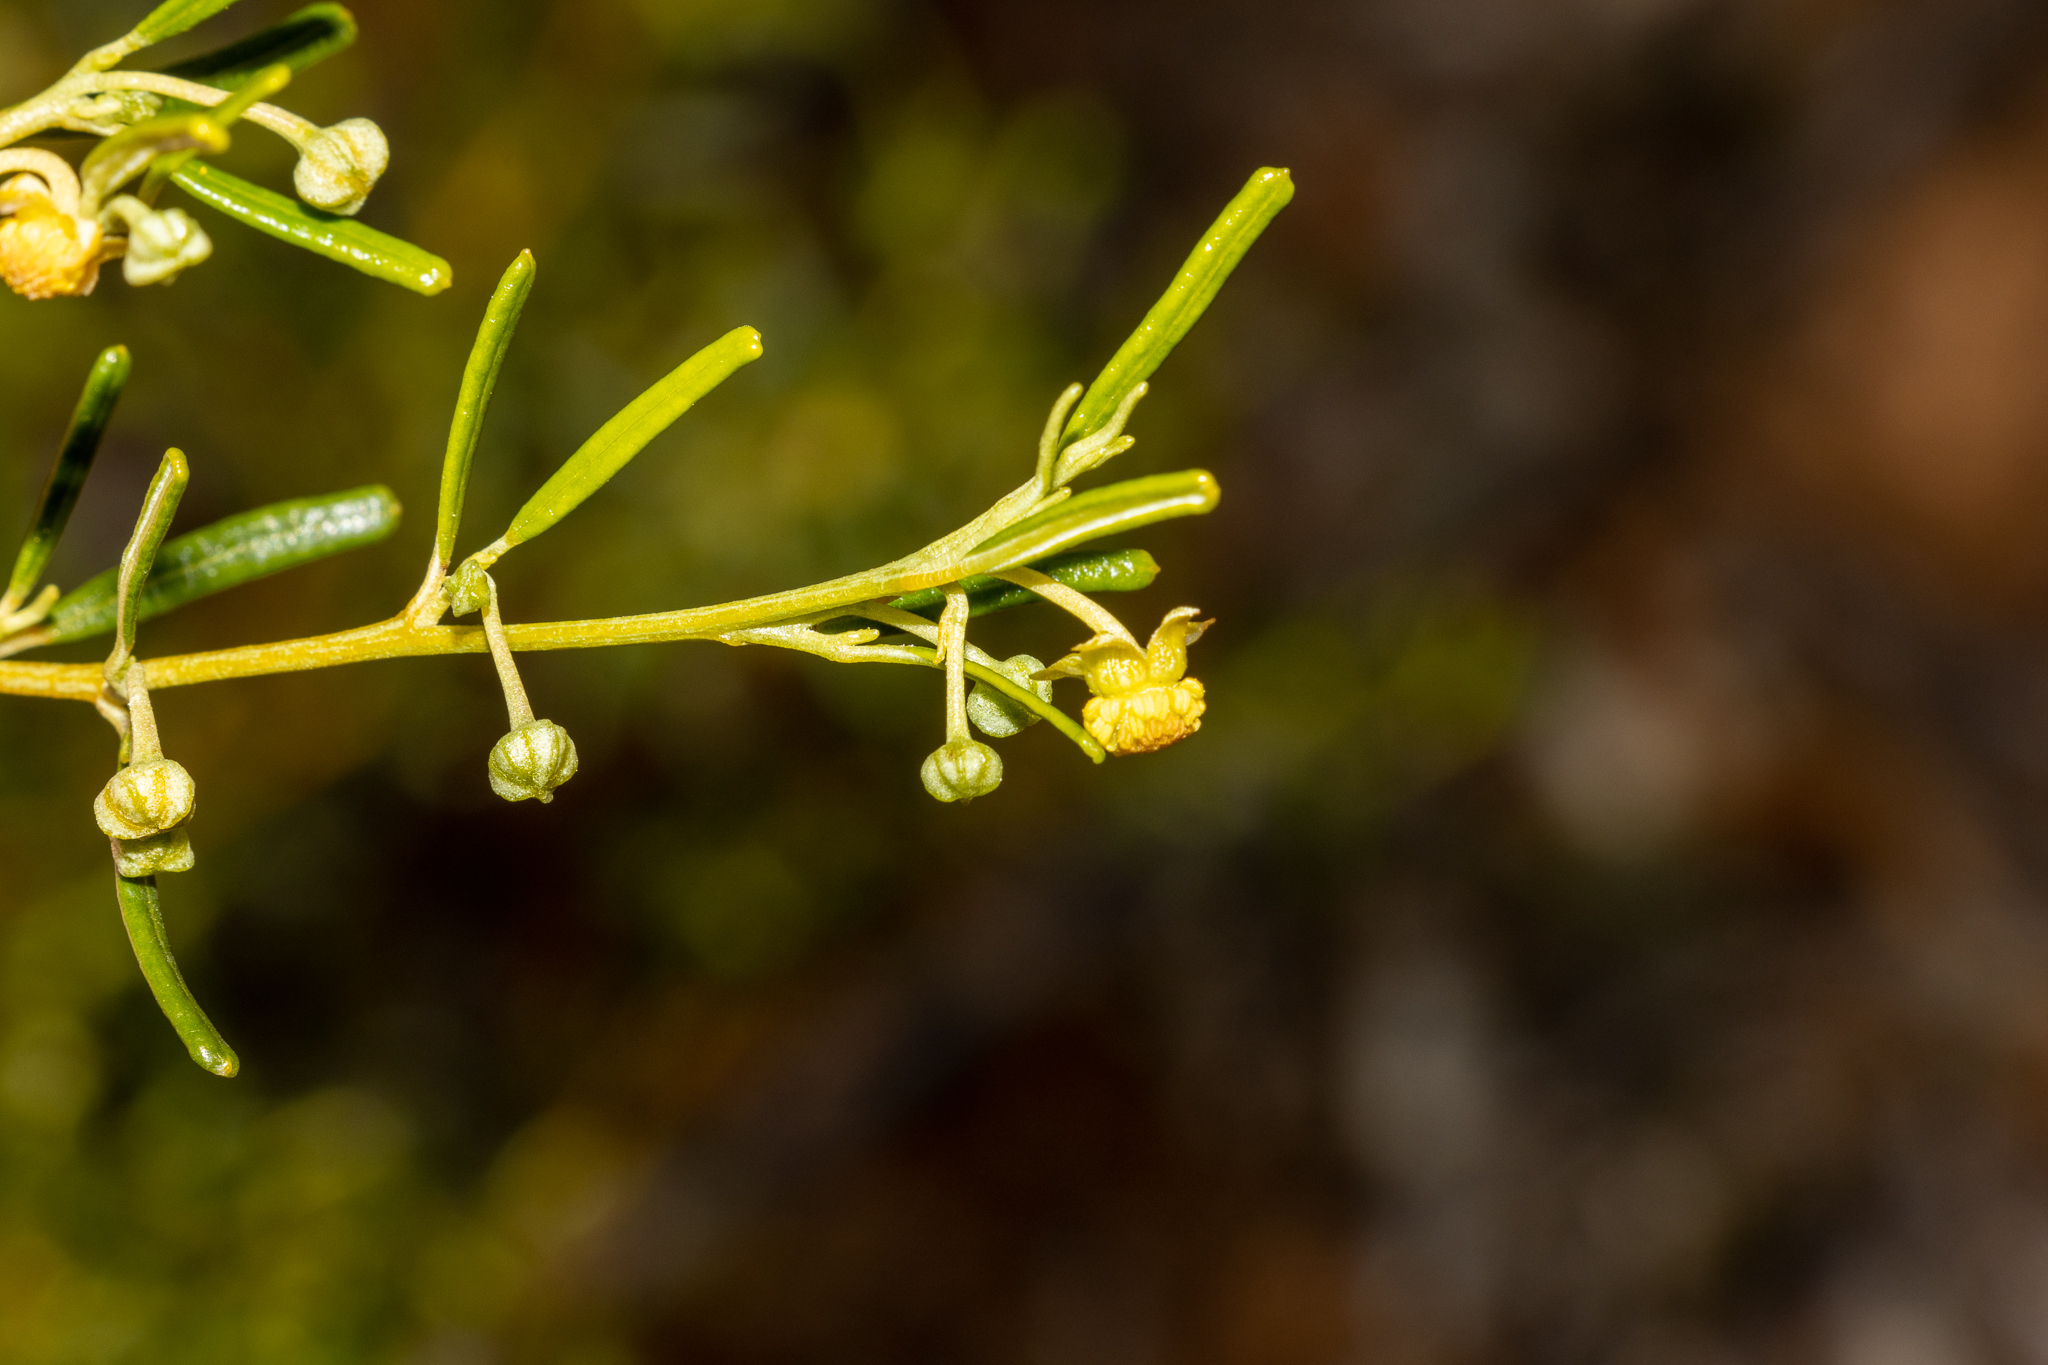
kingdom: Plantae
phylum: Tracheophyta
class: Magnoliopsida
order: Malpighiales
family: Euphorbiaceae
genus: Beyeria
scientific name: Beyeria lechenaultii
